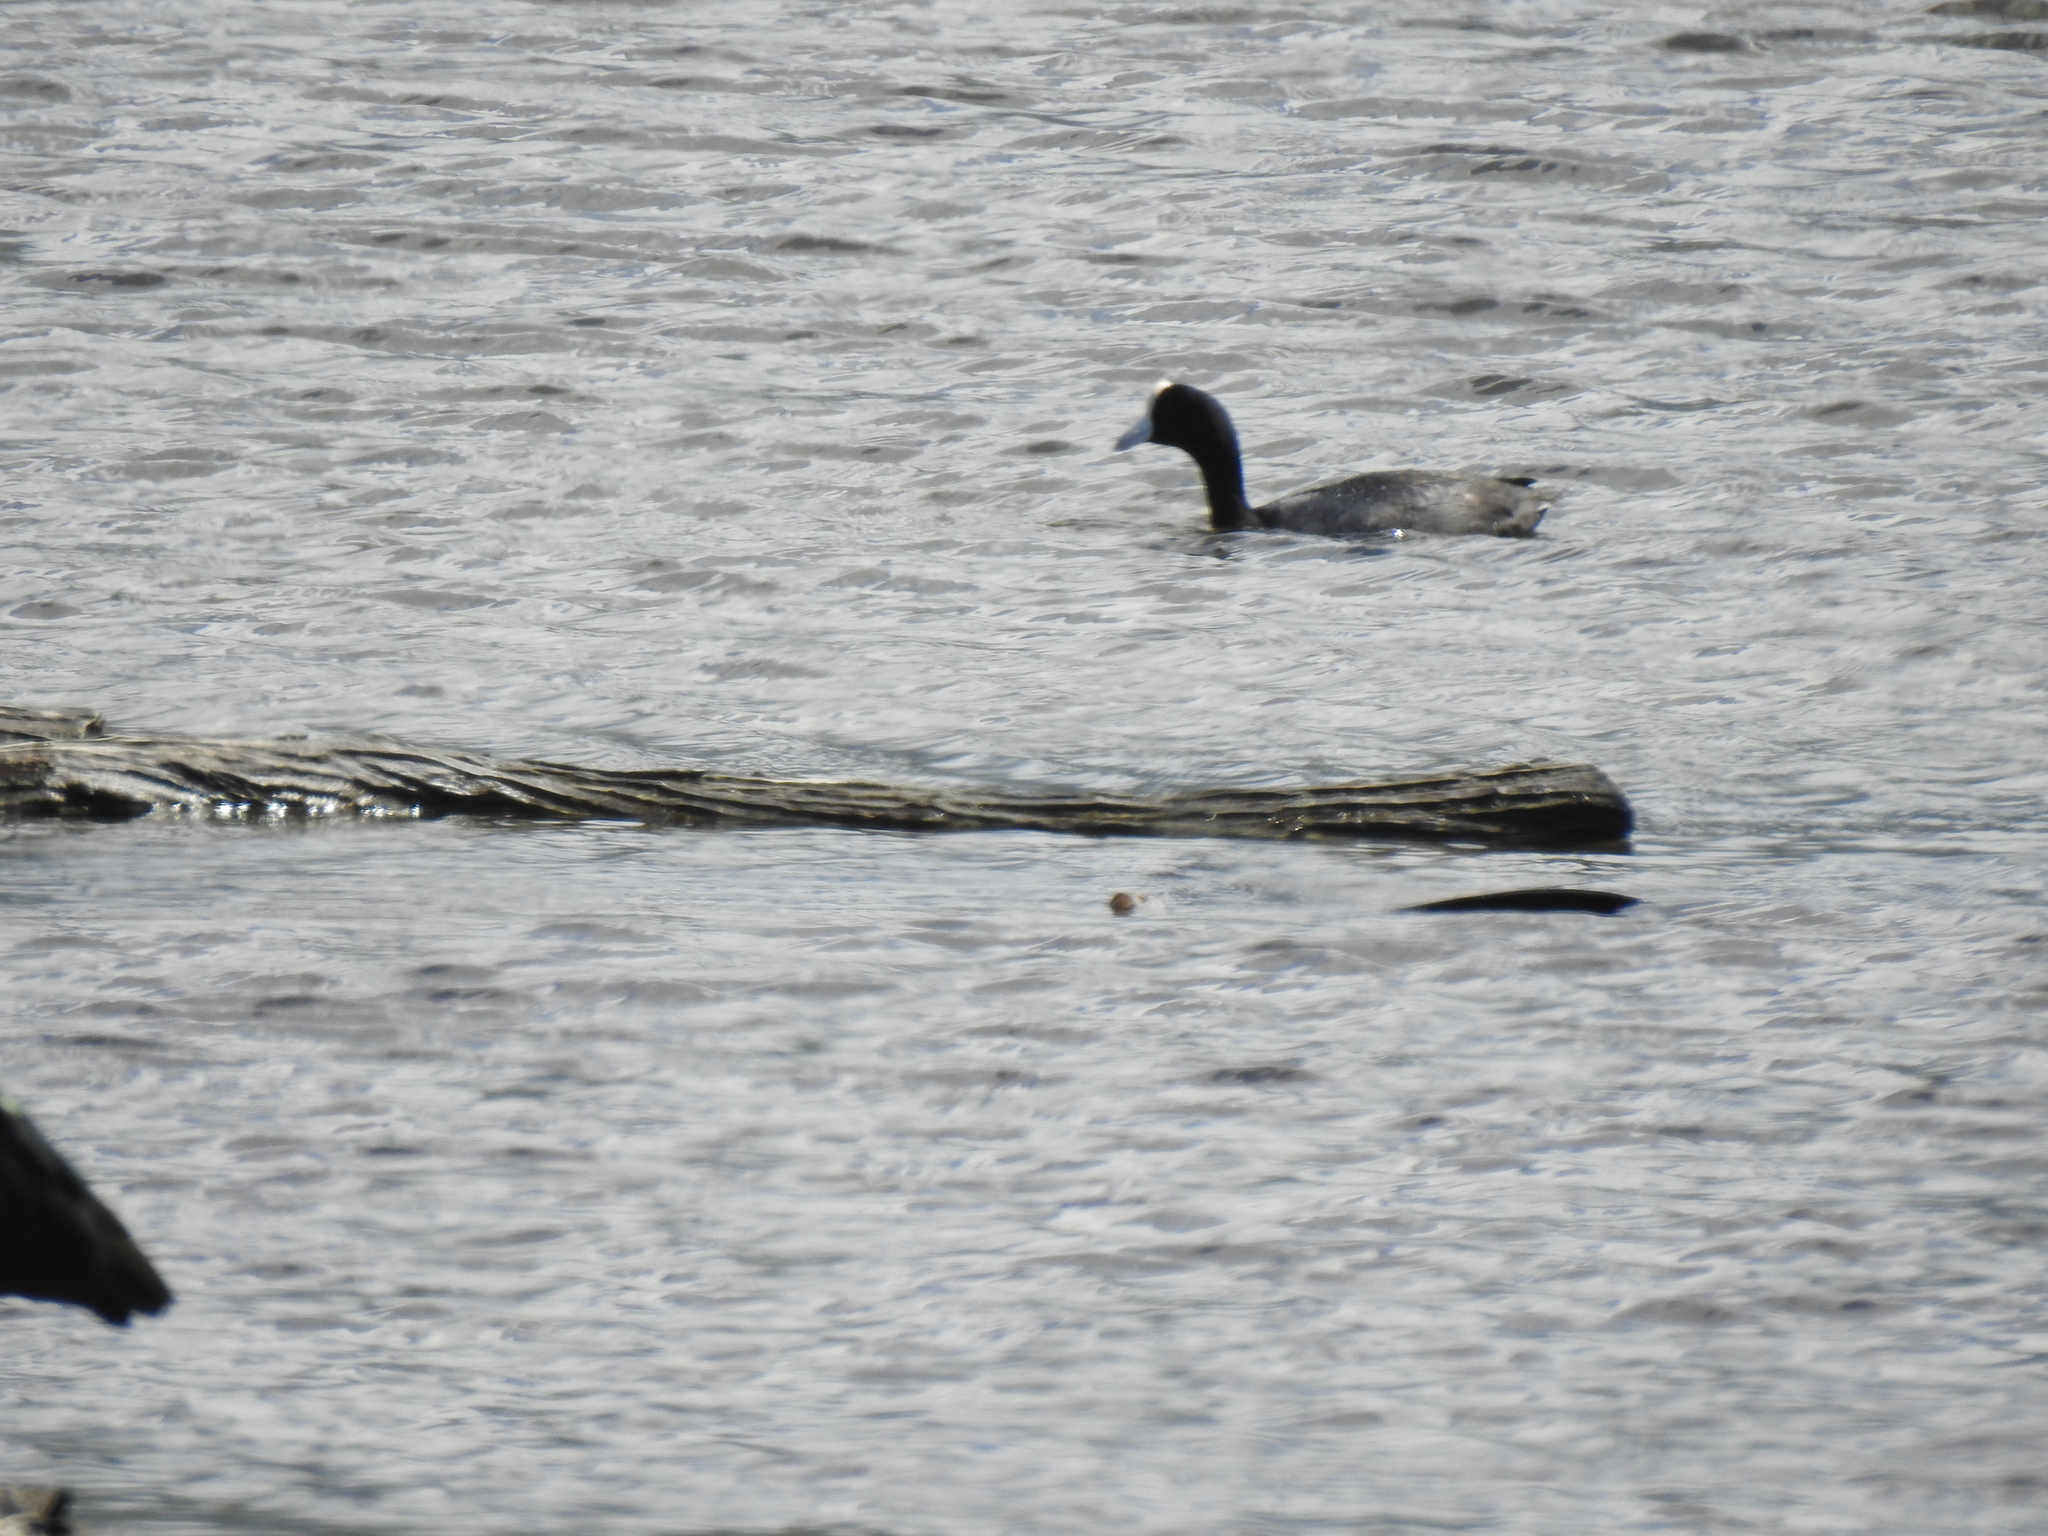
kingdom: Animalia
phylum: Chordata
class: Aves
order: Gruiformes
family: Rallidae
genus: Fulica
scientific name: Fulica alai
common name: Hawaiian coot
